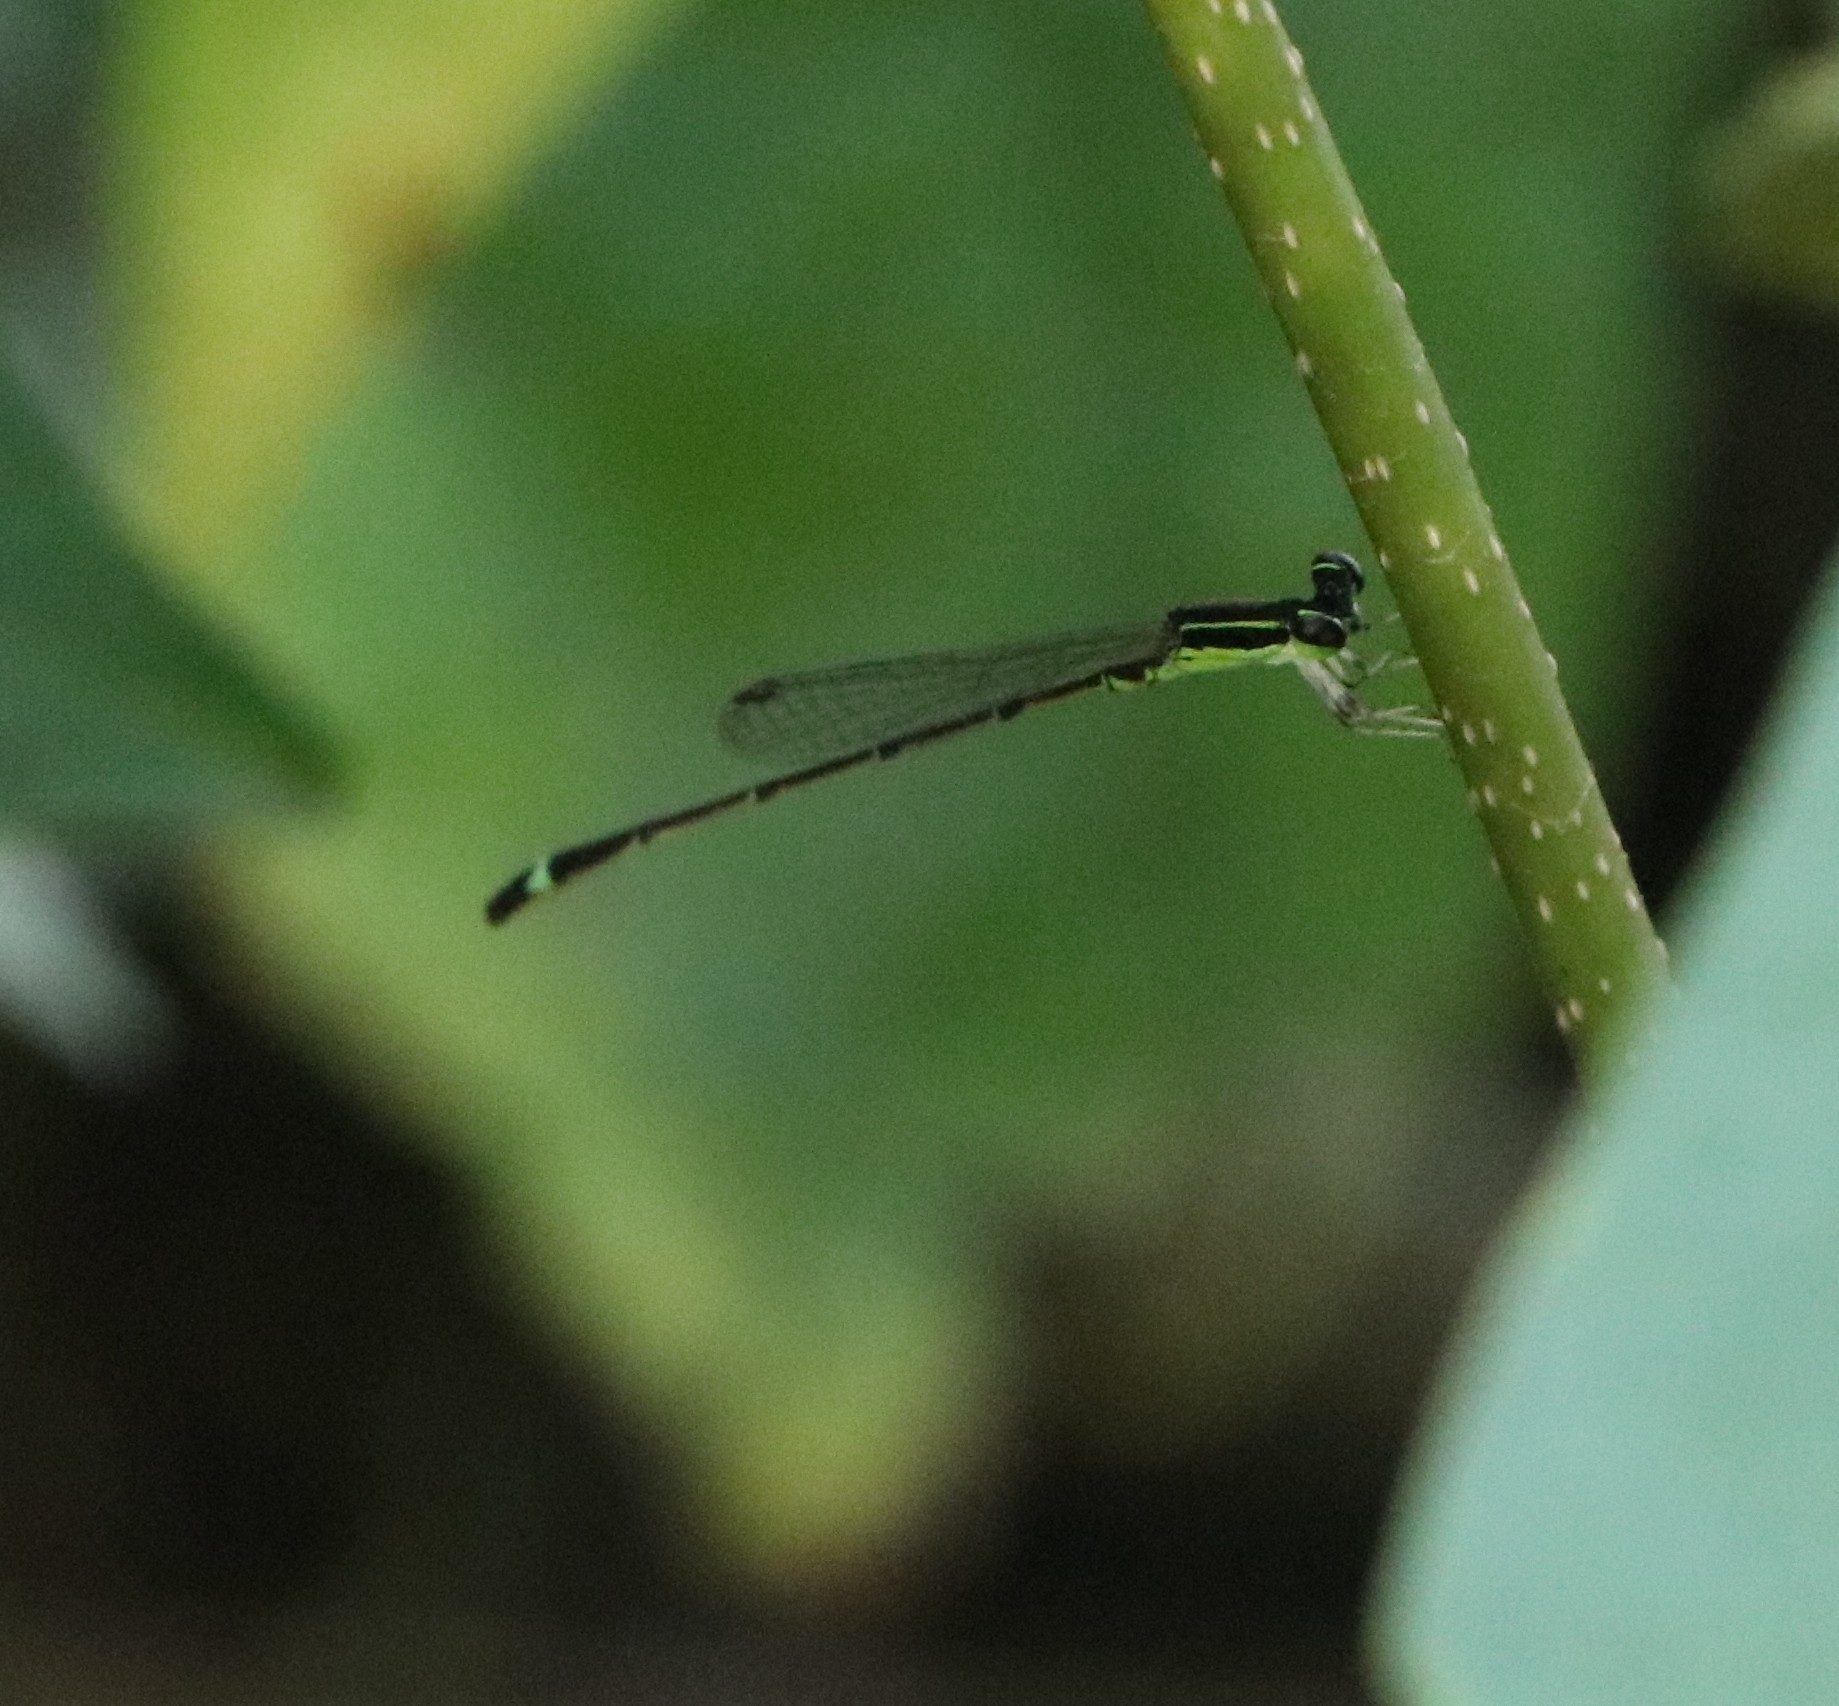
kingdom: Animalia
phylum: Arthropoda
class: Insecta
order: Odonata
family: Coenagrionidae
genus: Mortonagrion
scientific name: Mortonagrion varralli
